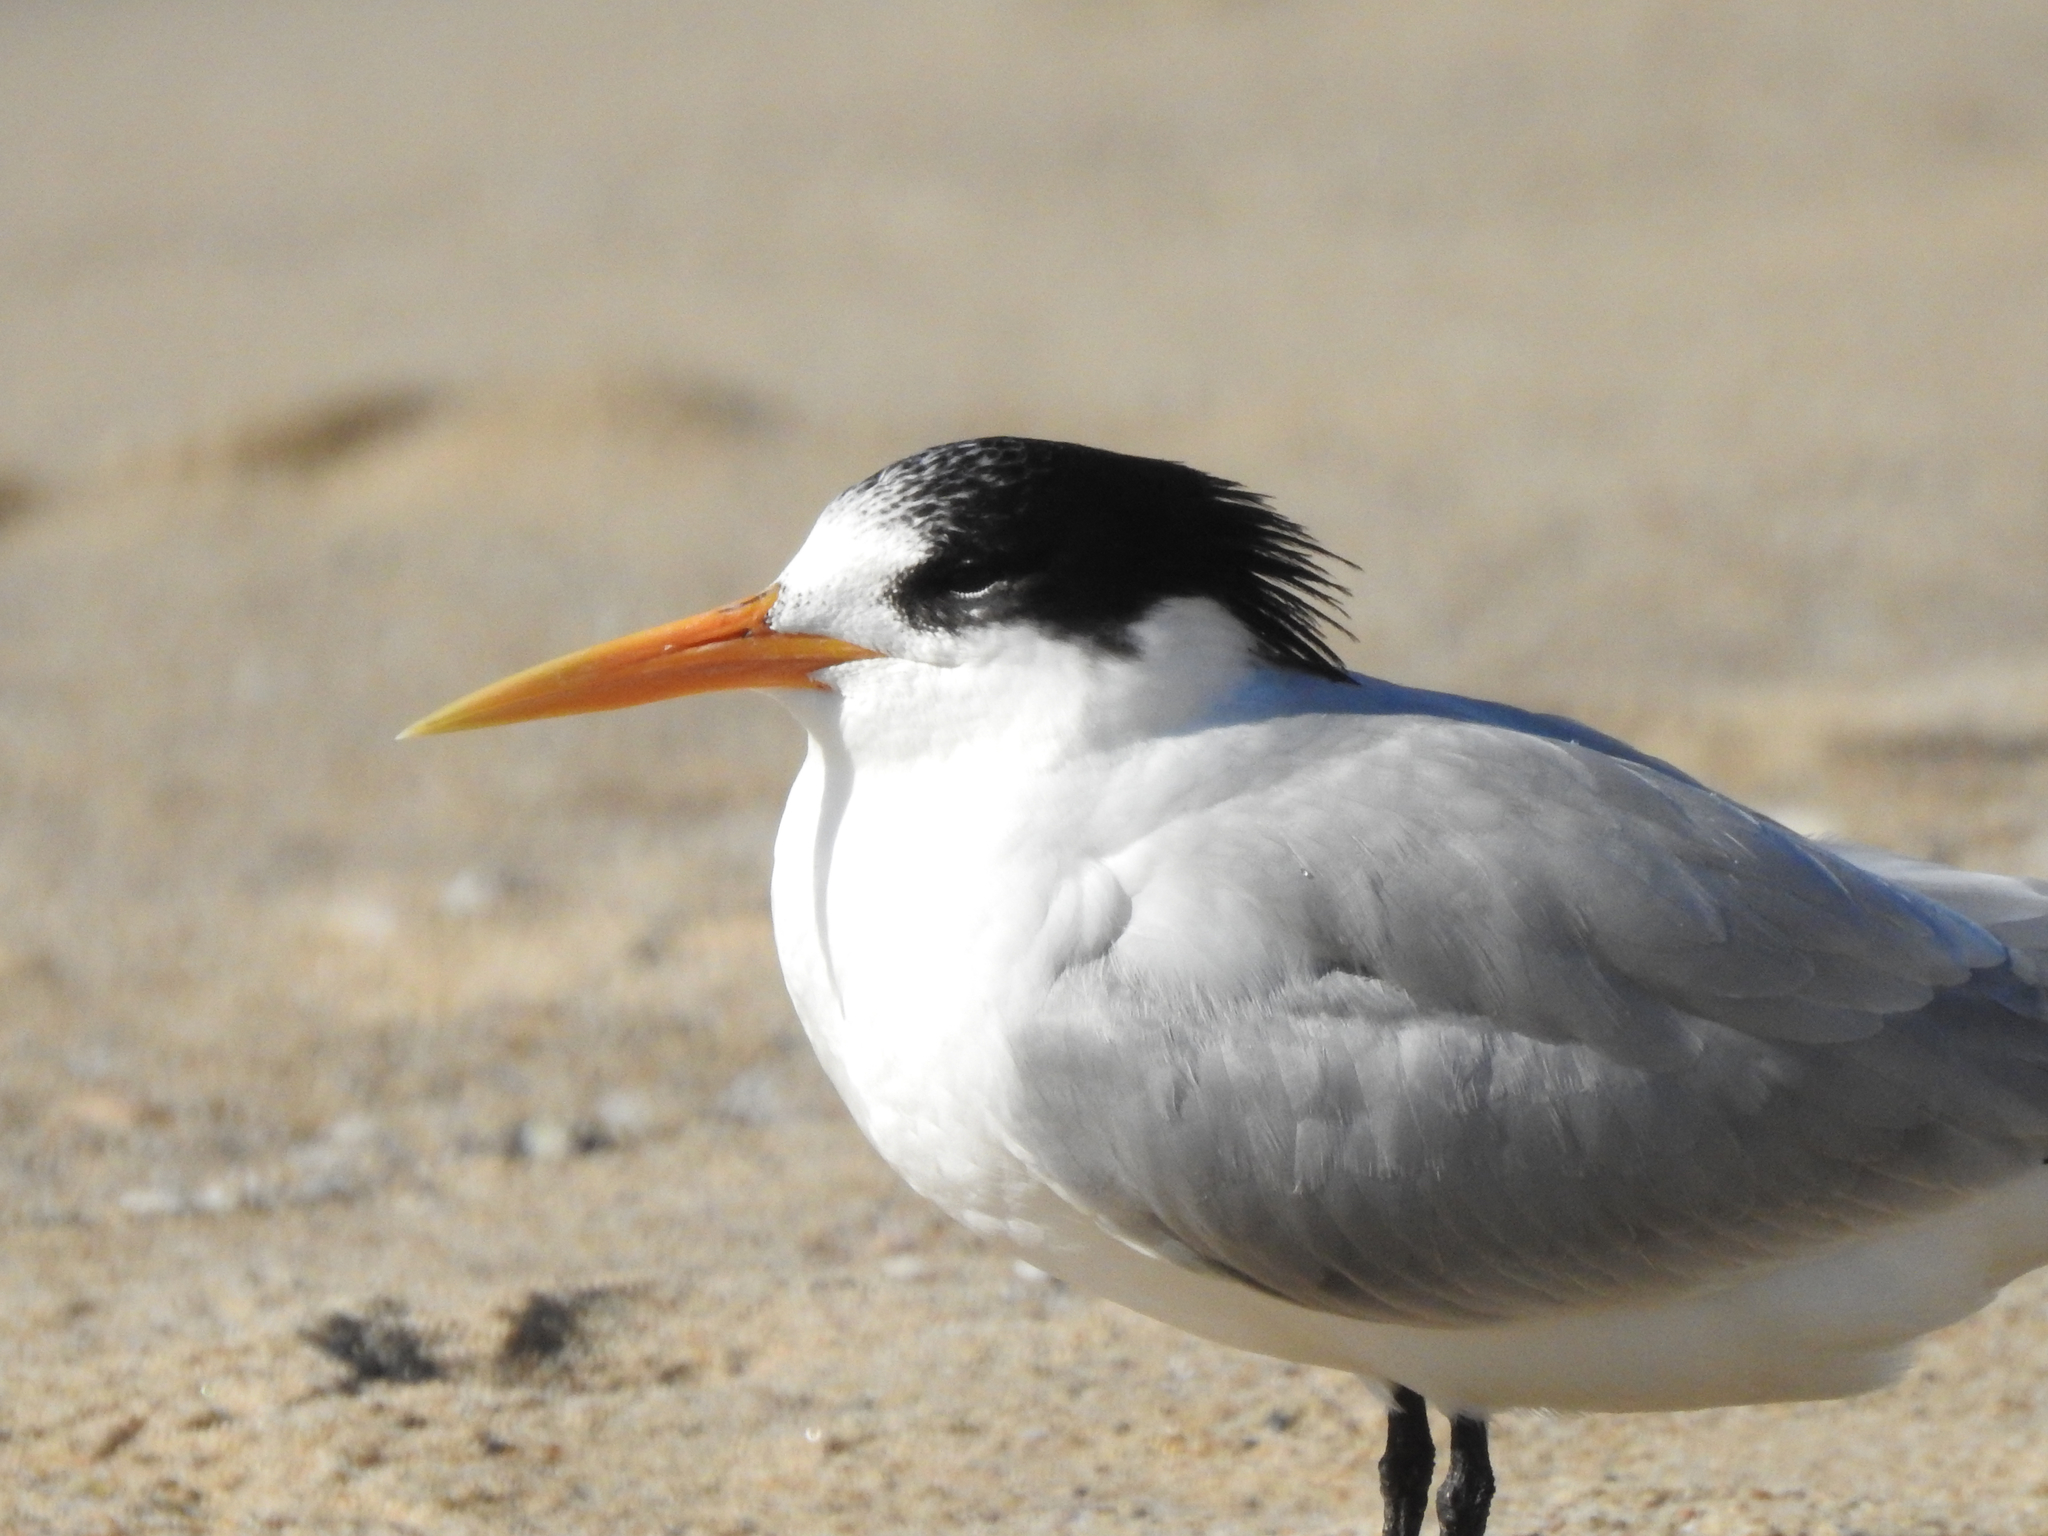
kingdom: Animalia
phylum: Chordata
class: Aves
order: Charadriiformes
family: Laridae
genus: Thalasseus
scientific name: Thalasseus elegans
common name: Elegant tern
